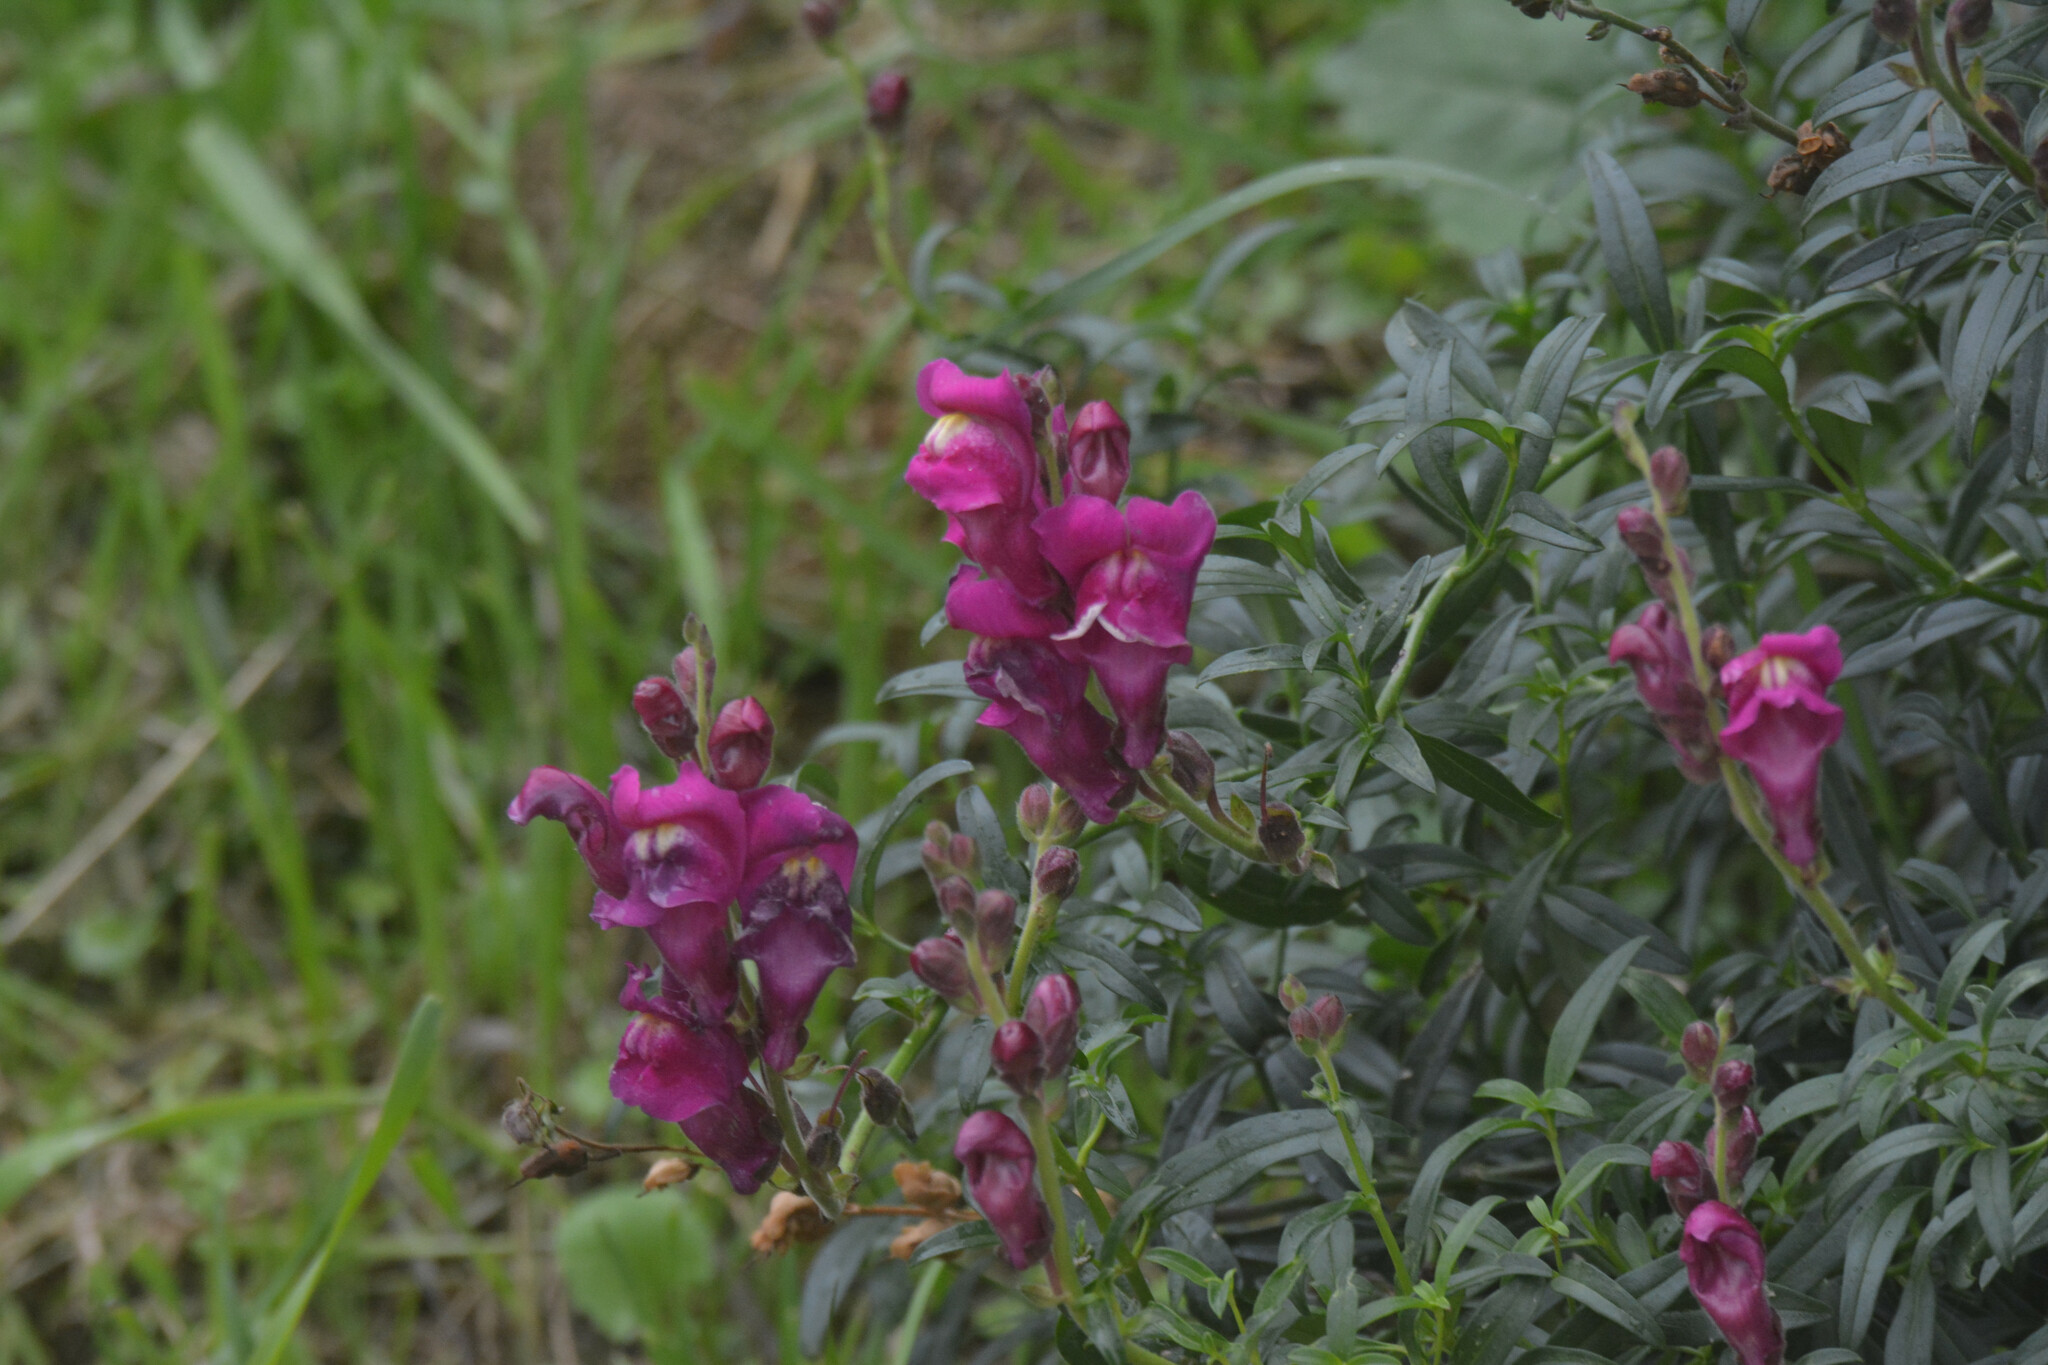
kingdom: Plantae
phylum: Tracheophyta
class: Magnoliopsida
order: Lamiales
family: Plantaginaceae
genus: Antirrhinum
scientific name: Antirrhinum majus
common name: Snapdragon
